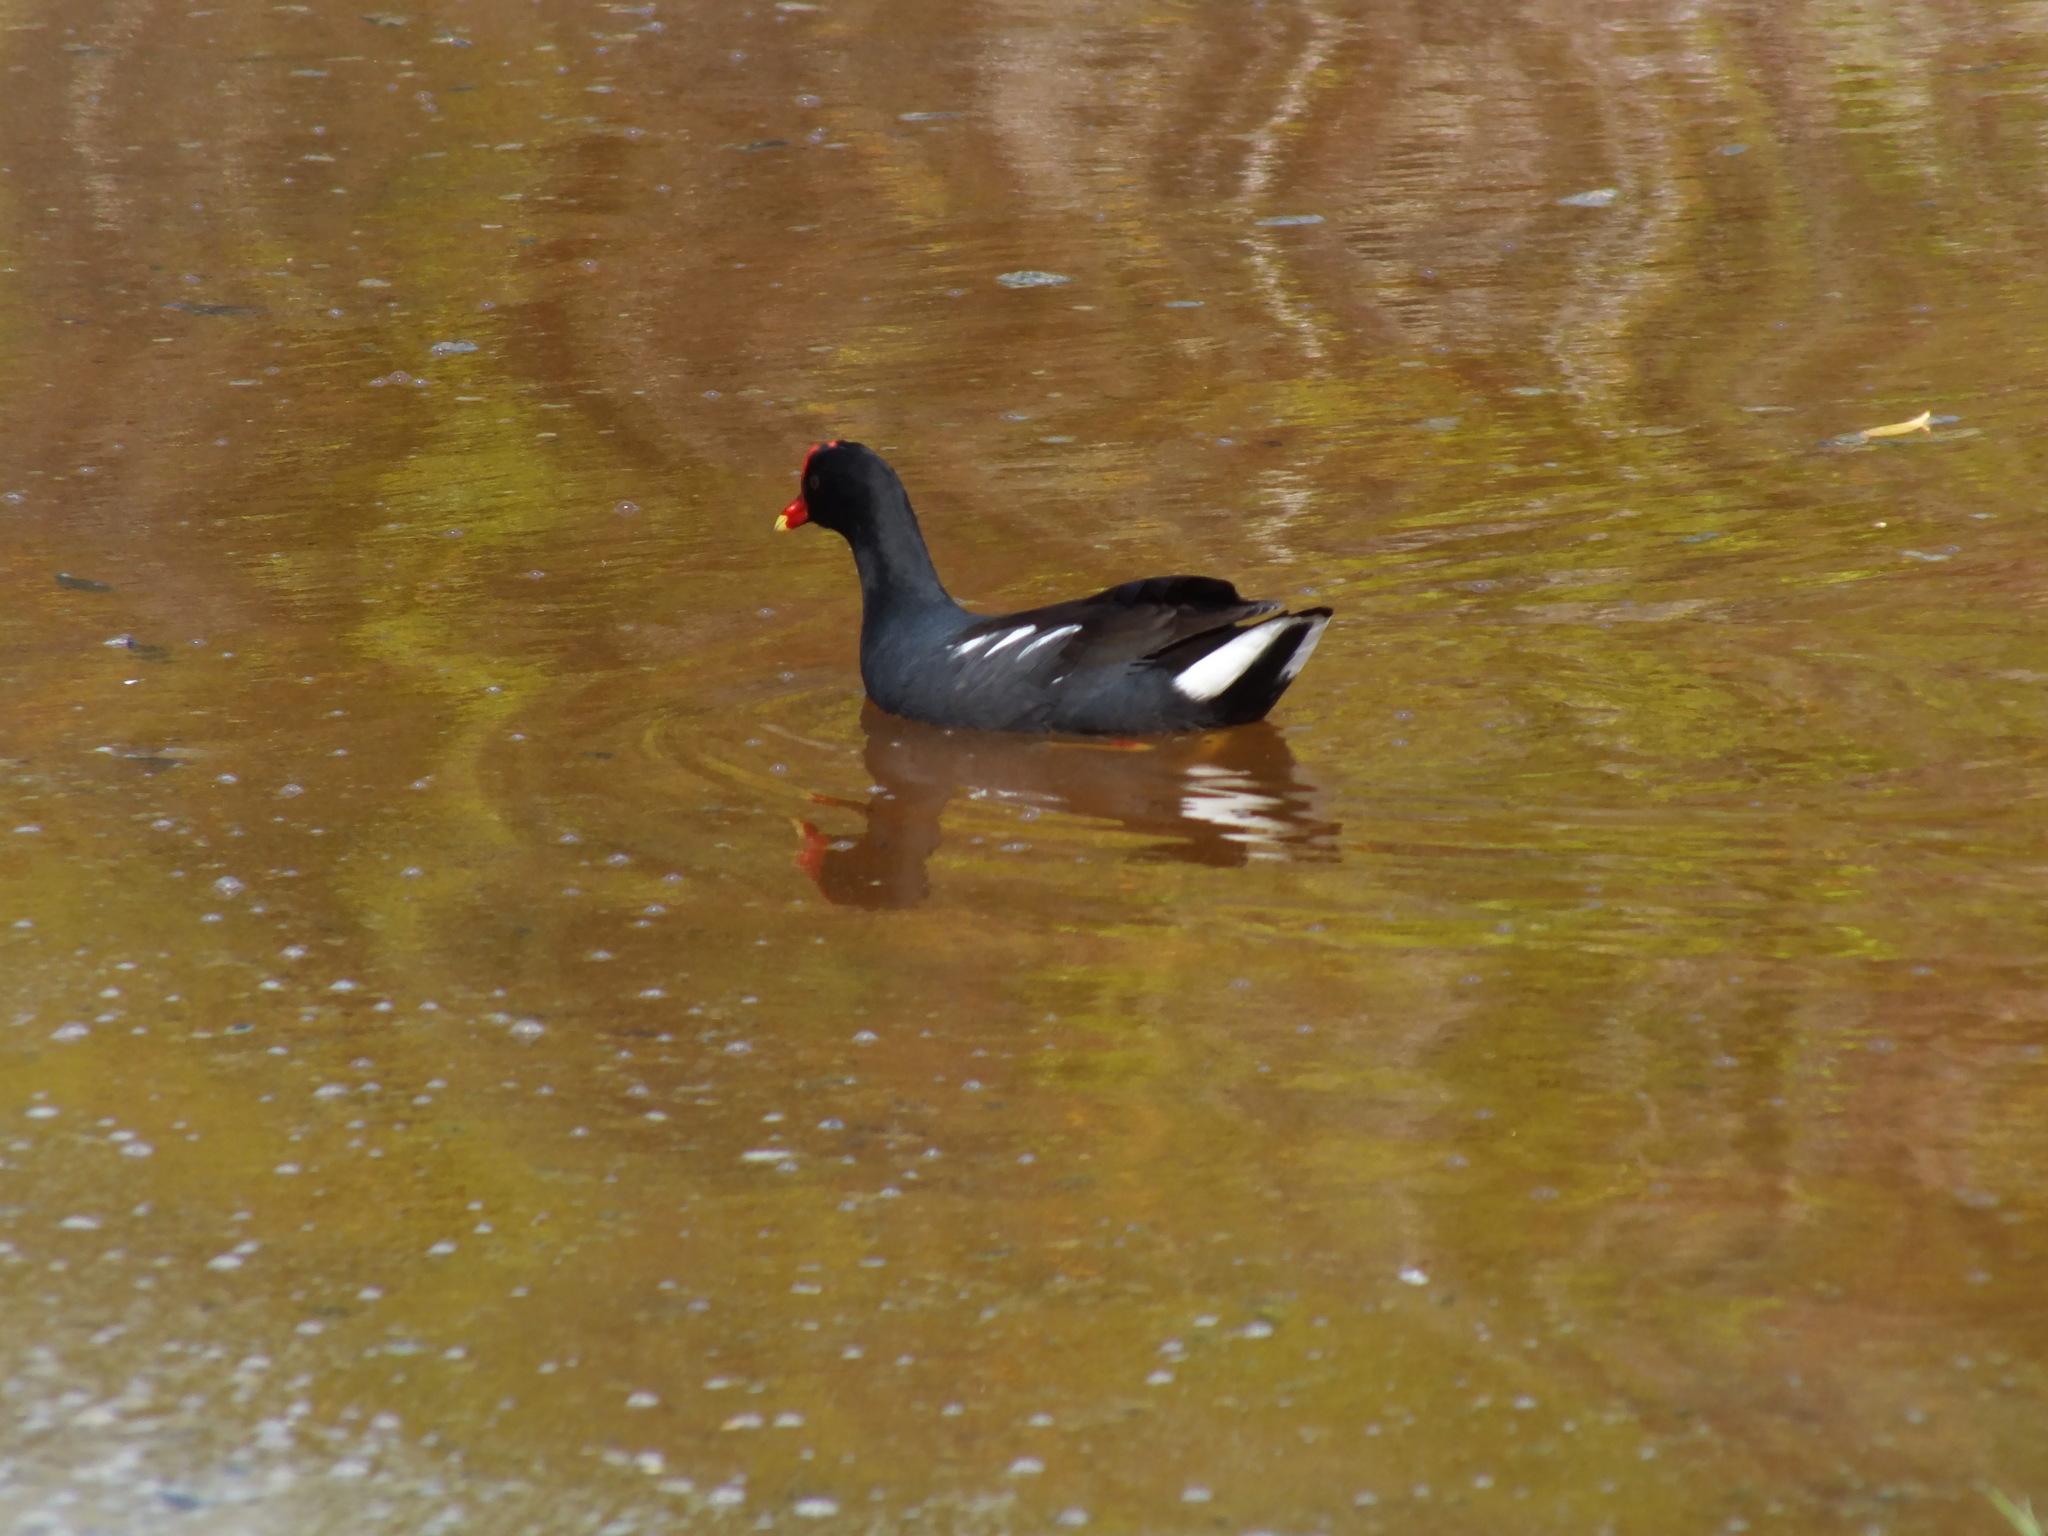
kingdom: Animalia
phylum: Chordata
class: Aves
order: Gruiformes
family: Rallidae
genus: Gallinula
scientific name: Gallinula chloropus
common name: Common moorhen
